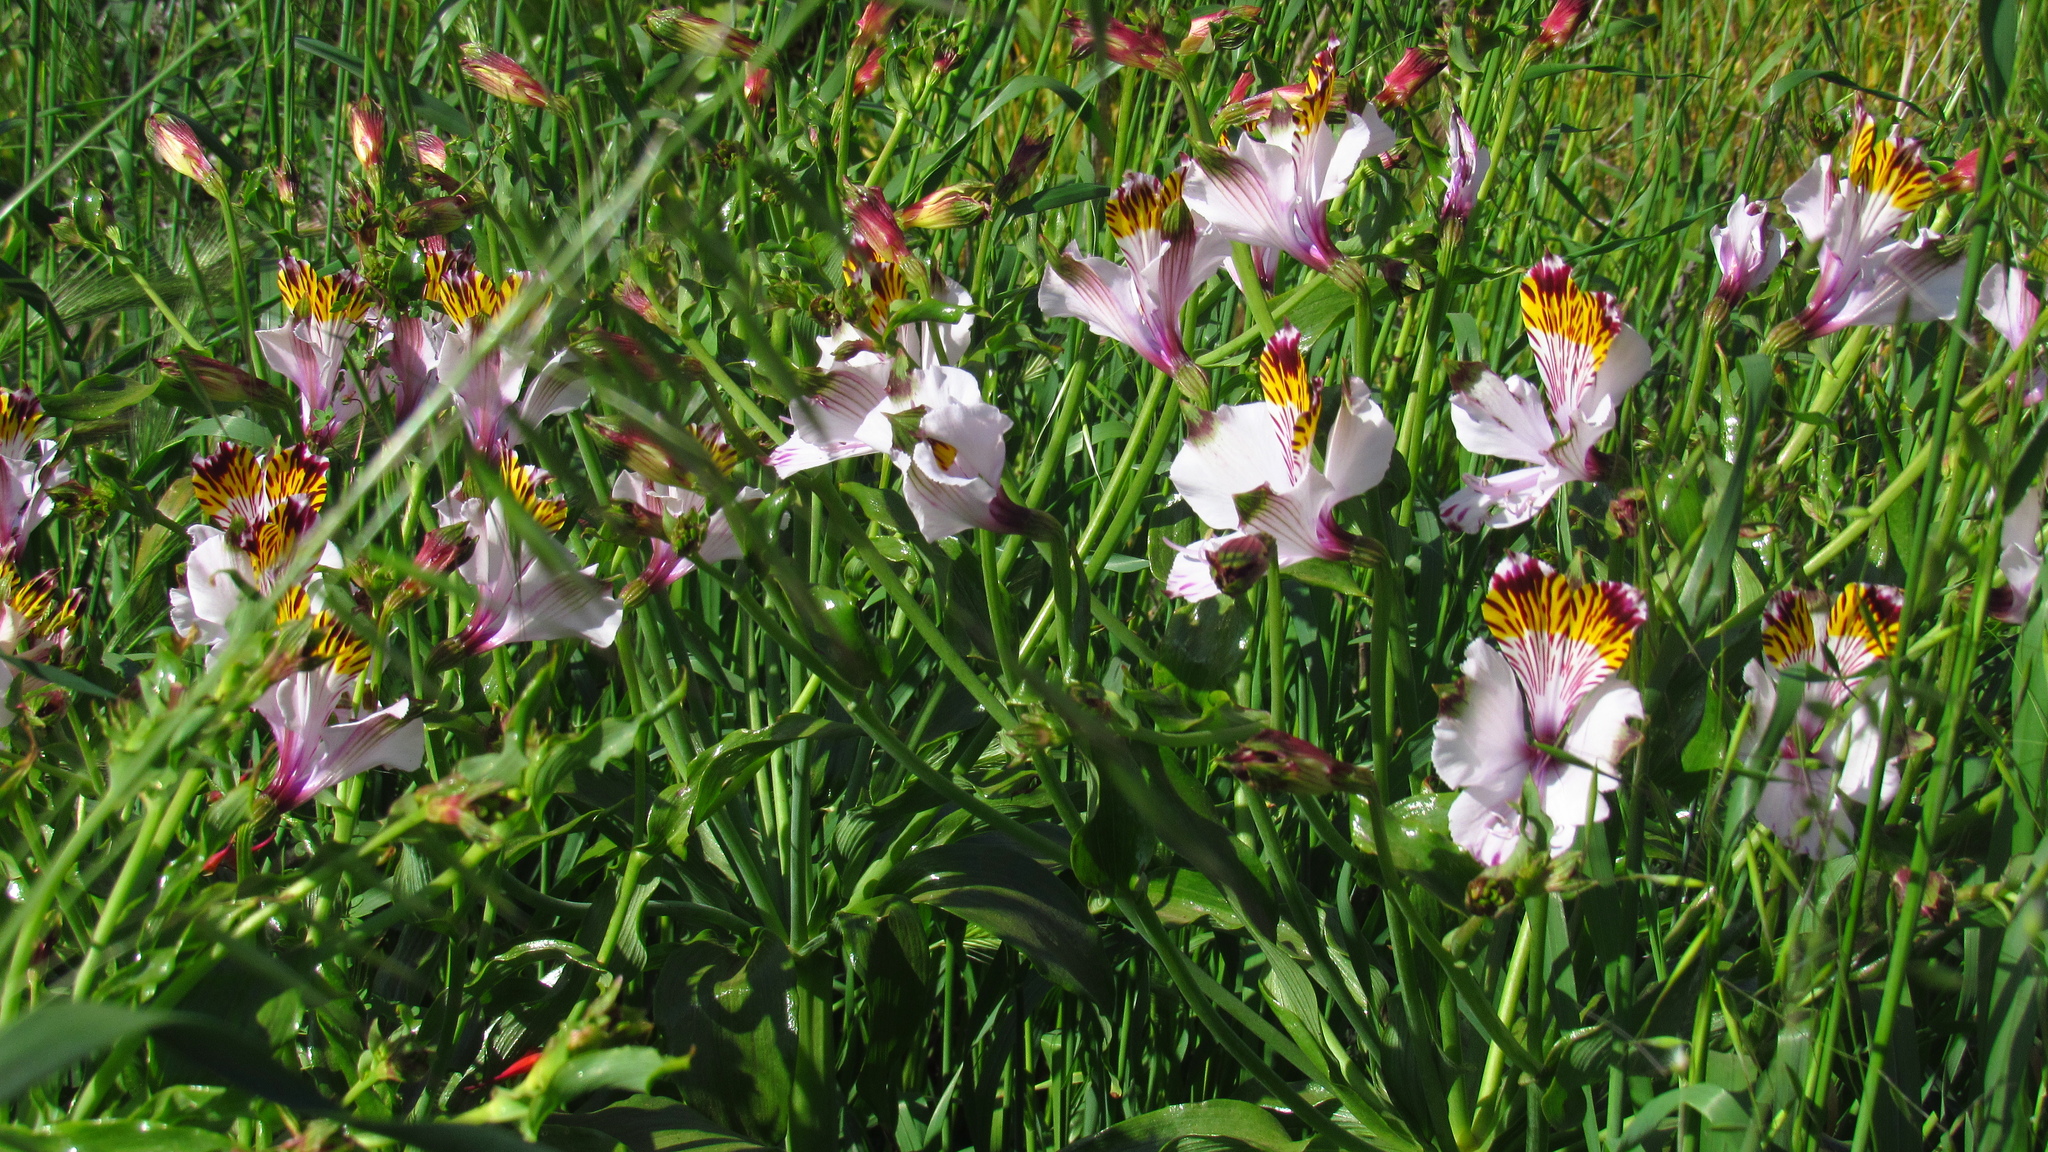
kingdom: Plantae
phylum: Tracheophyta
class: Liliopsida
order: Liliales
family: Alstroemeriaceae
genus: Alstroemeria
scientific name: Alstroemeria pulchra
